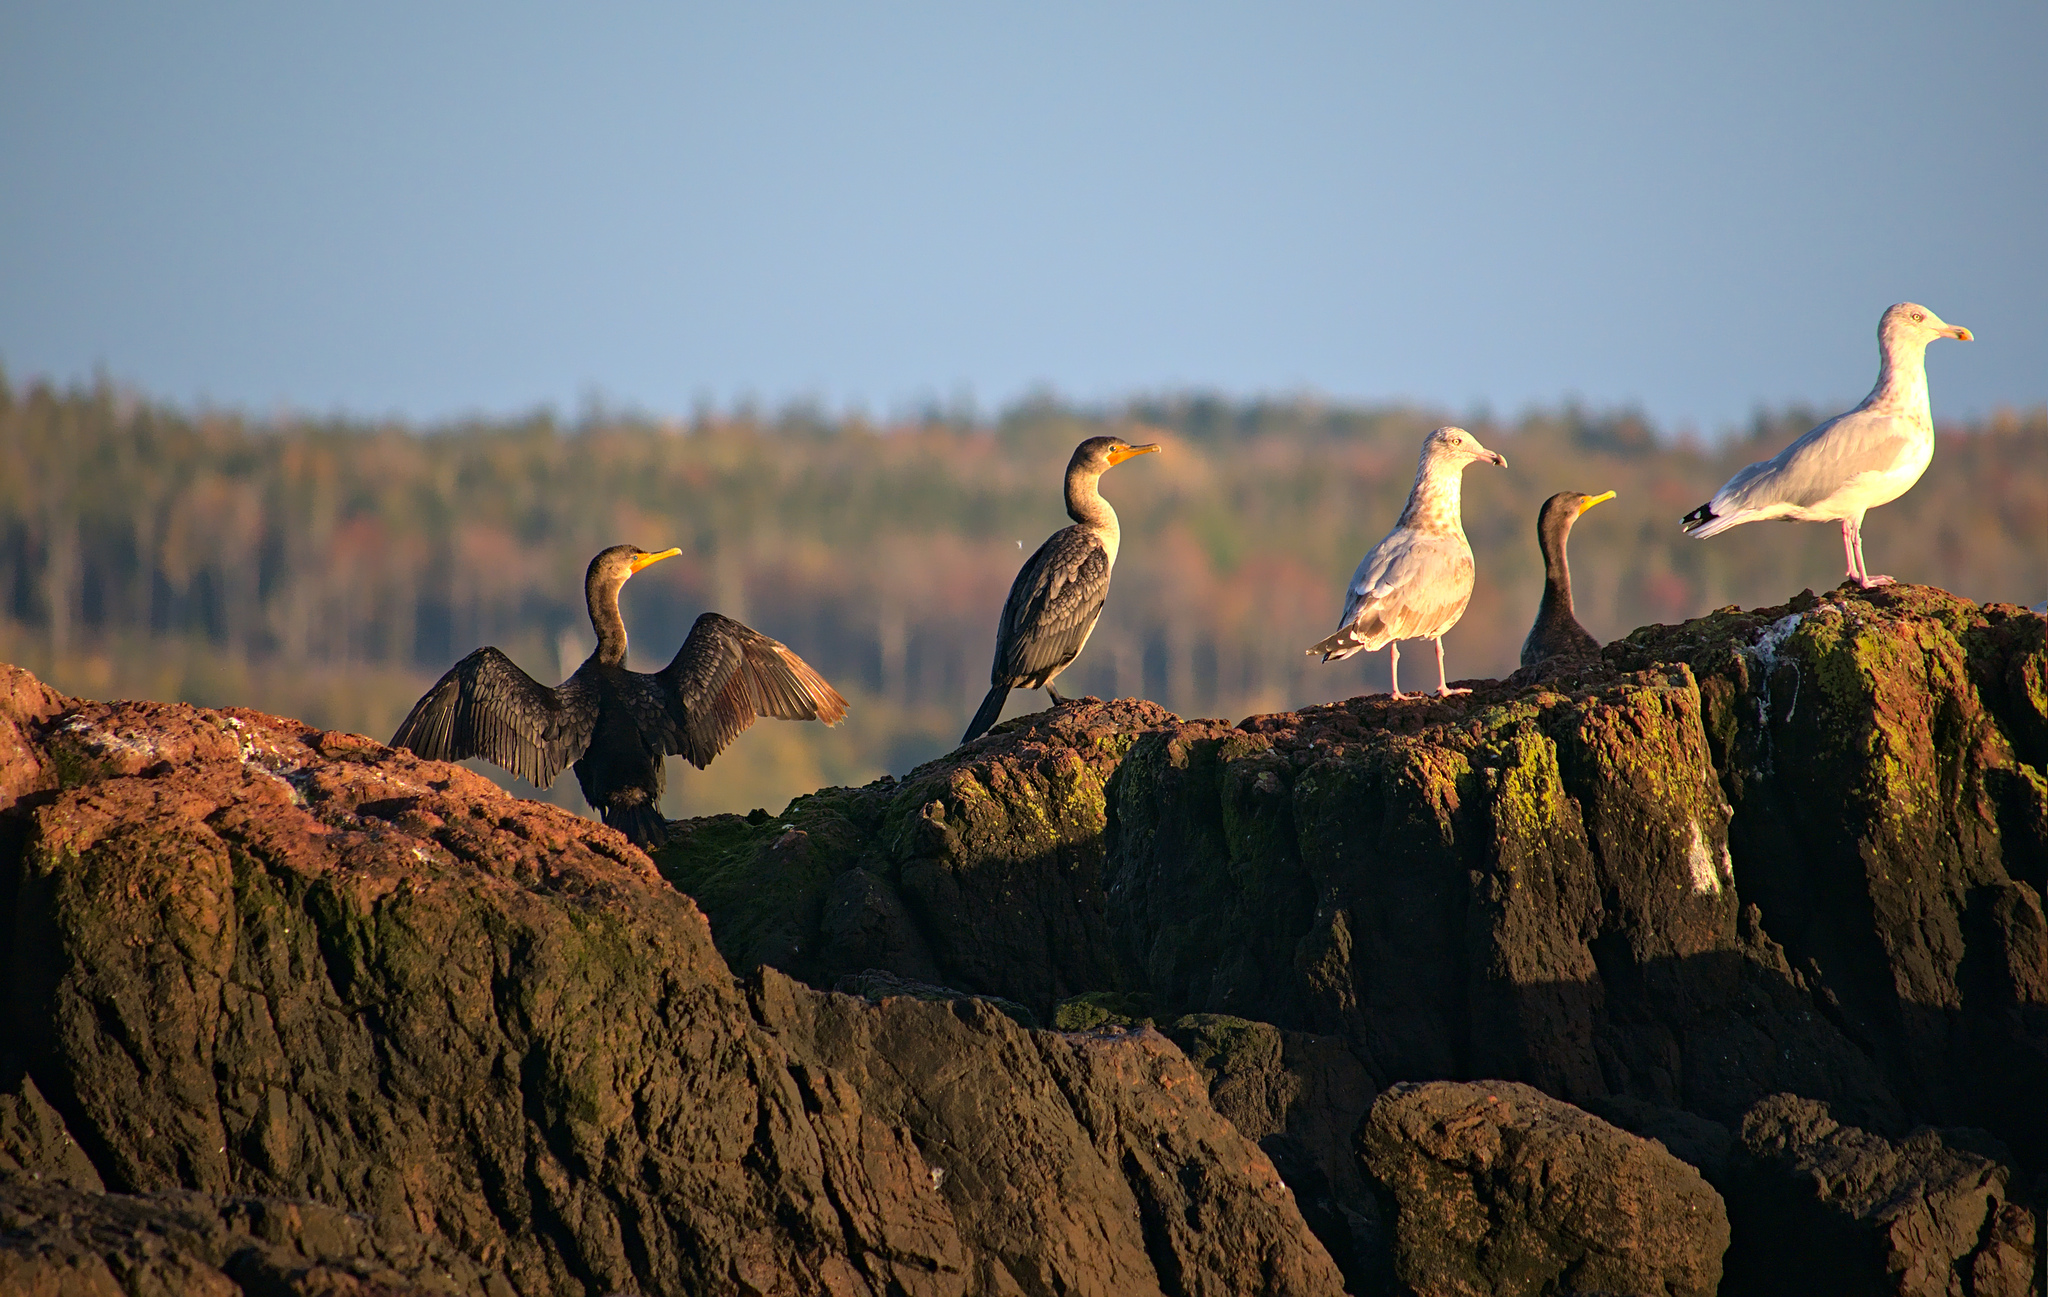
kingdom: Animalia
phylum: Chordata
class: Aves
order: Suliformes
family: Phalacrocoracidae
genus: Phalacrocorax
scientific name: Phalacrocorax auritus
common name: Double-crested cormorant
